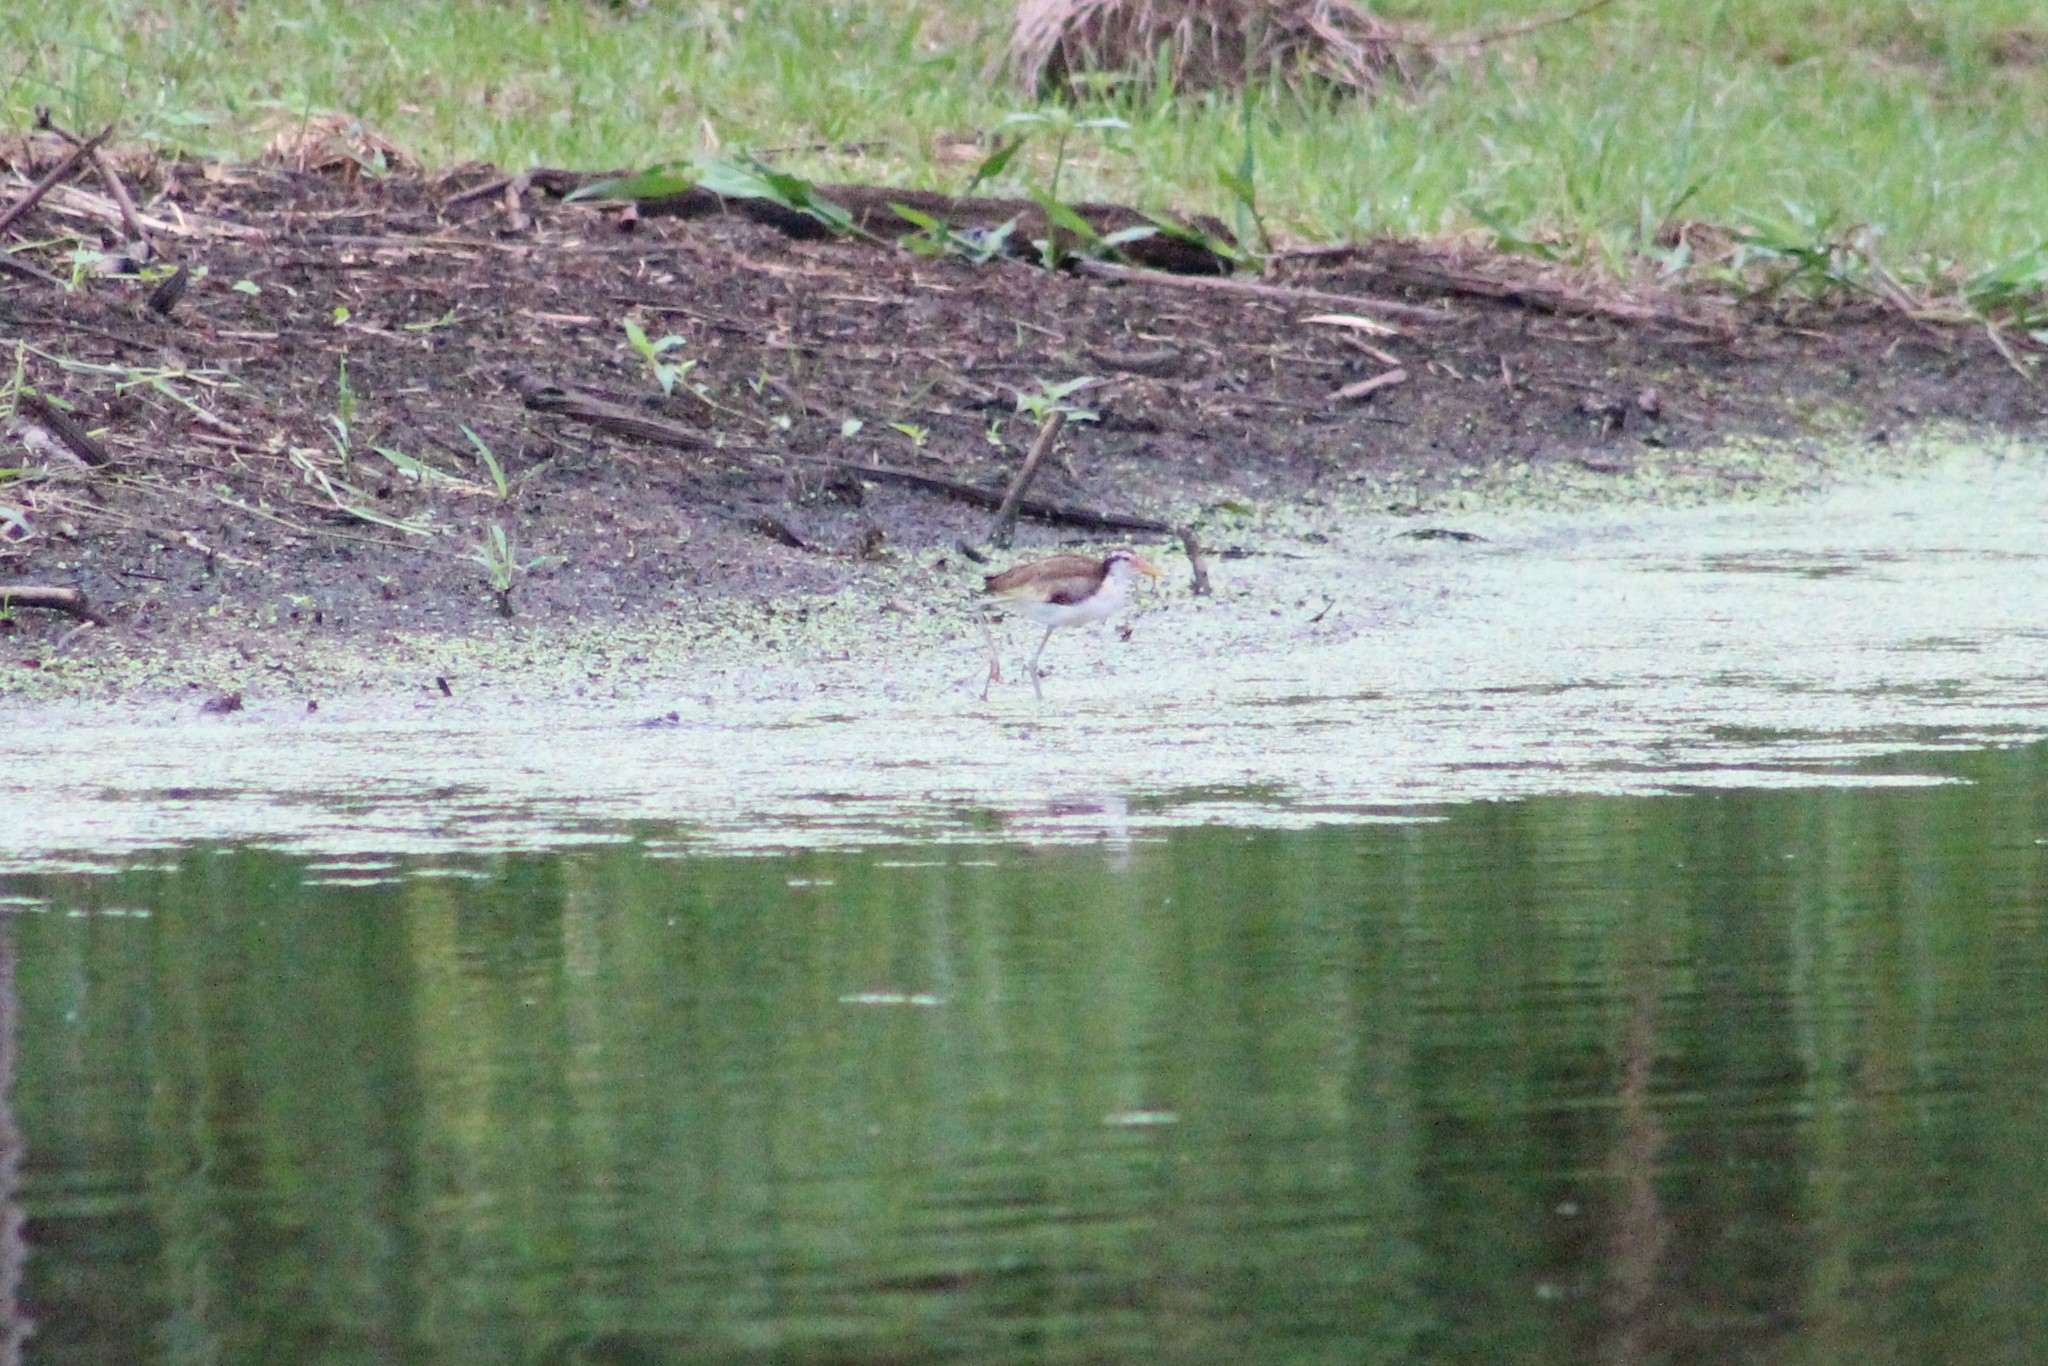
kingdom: Animalia
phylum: Chordata
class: Aves
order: Charadriiformes
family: Jacanidae
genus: Jacana
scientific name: Jacana jacana
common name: Wattled jacana
